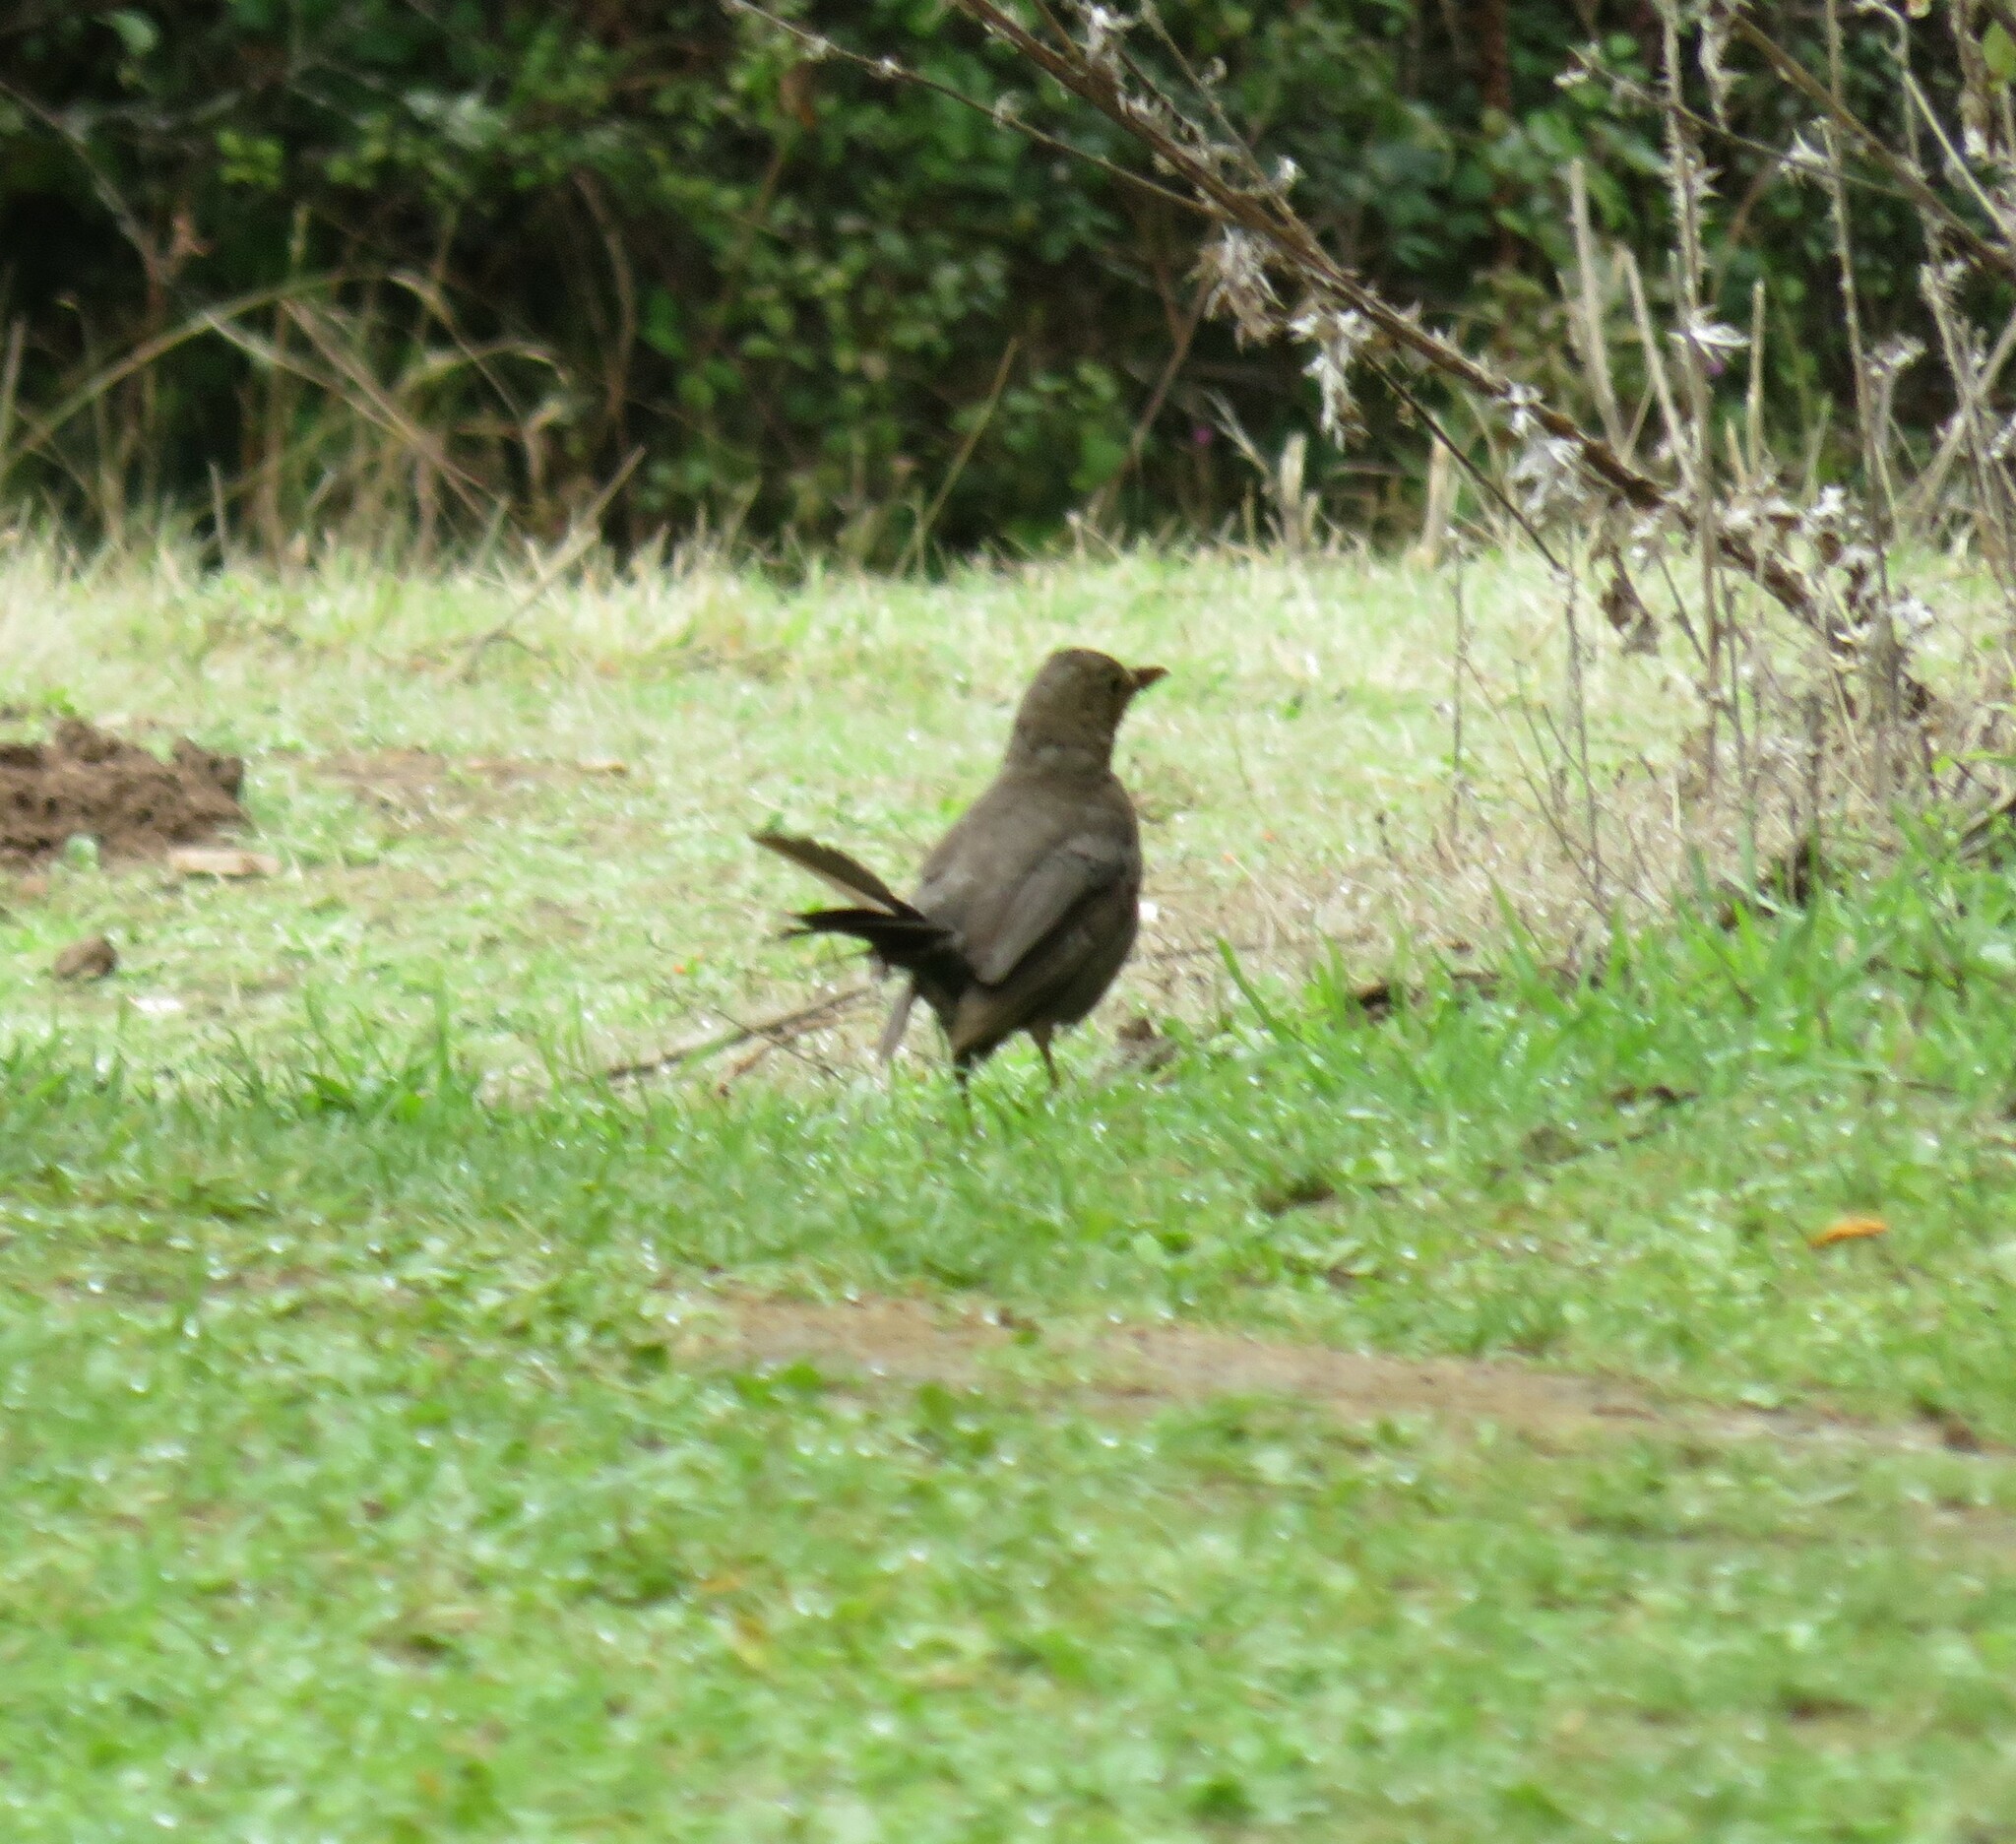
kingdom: Animalia
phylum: Chordata
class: Aves
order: Passeriformes
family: Turdidae
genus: Turdus
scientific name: Turdus merula
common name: Common blackbird
